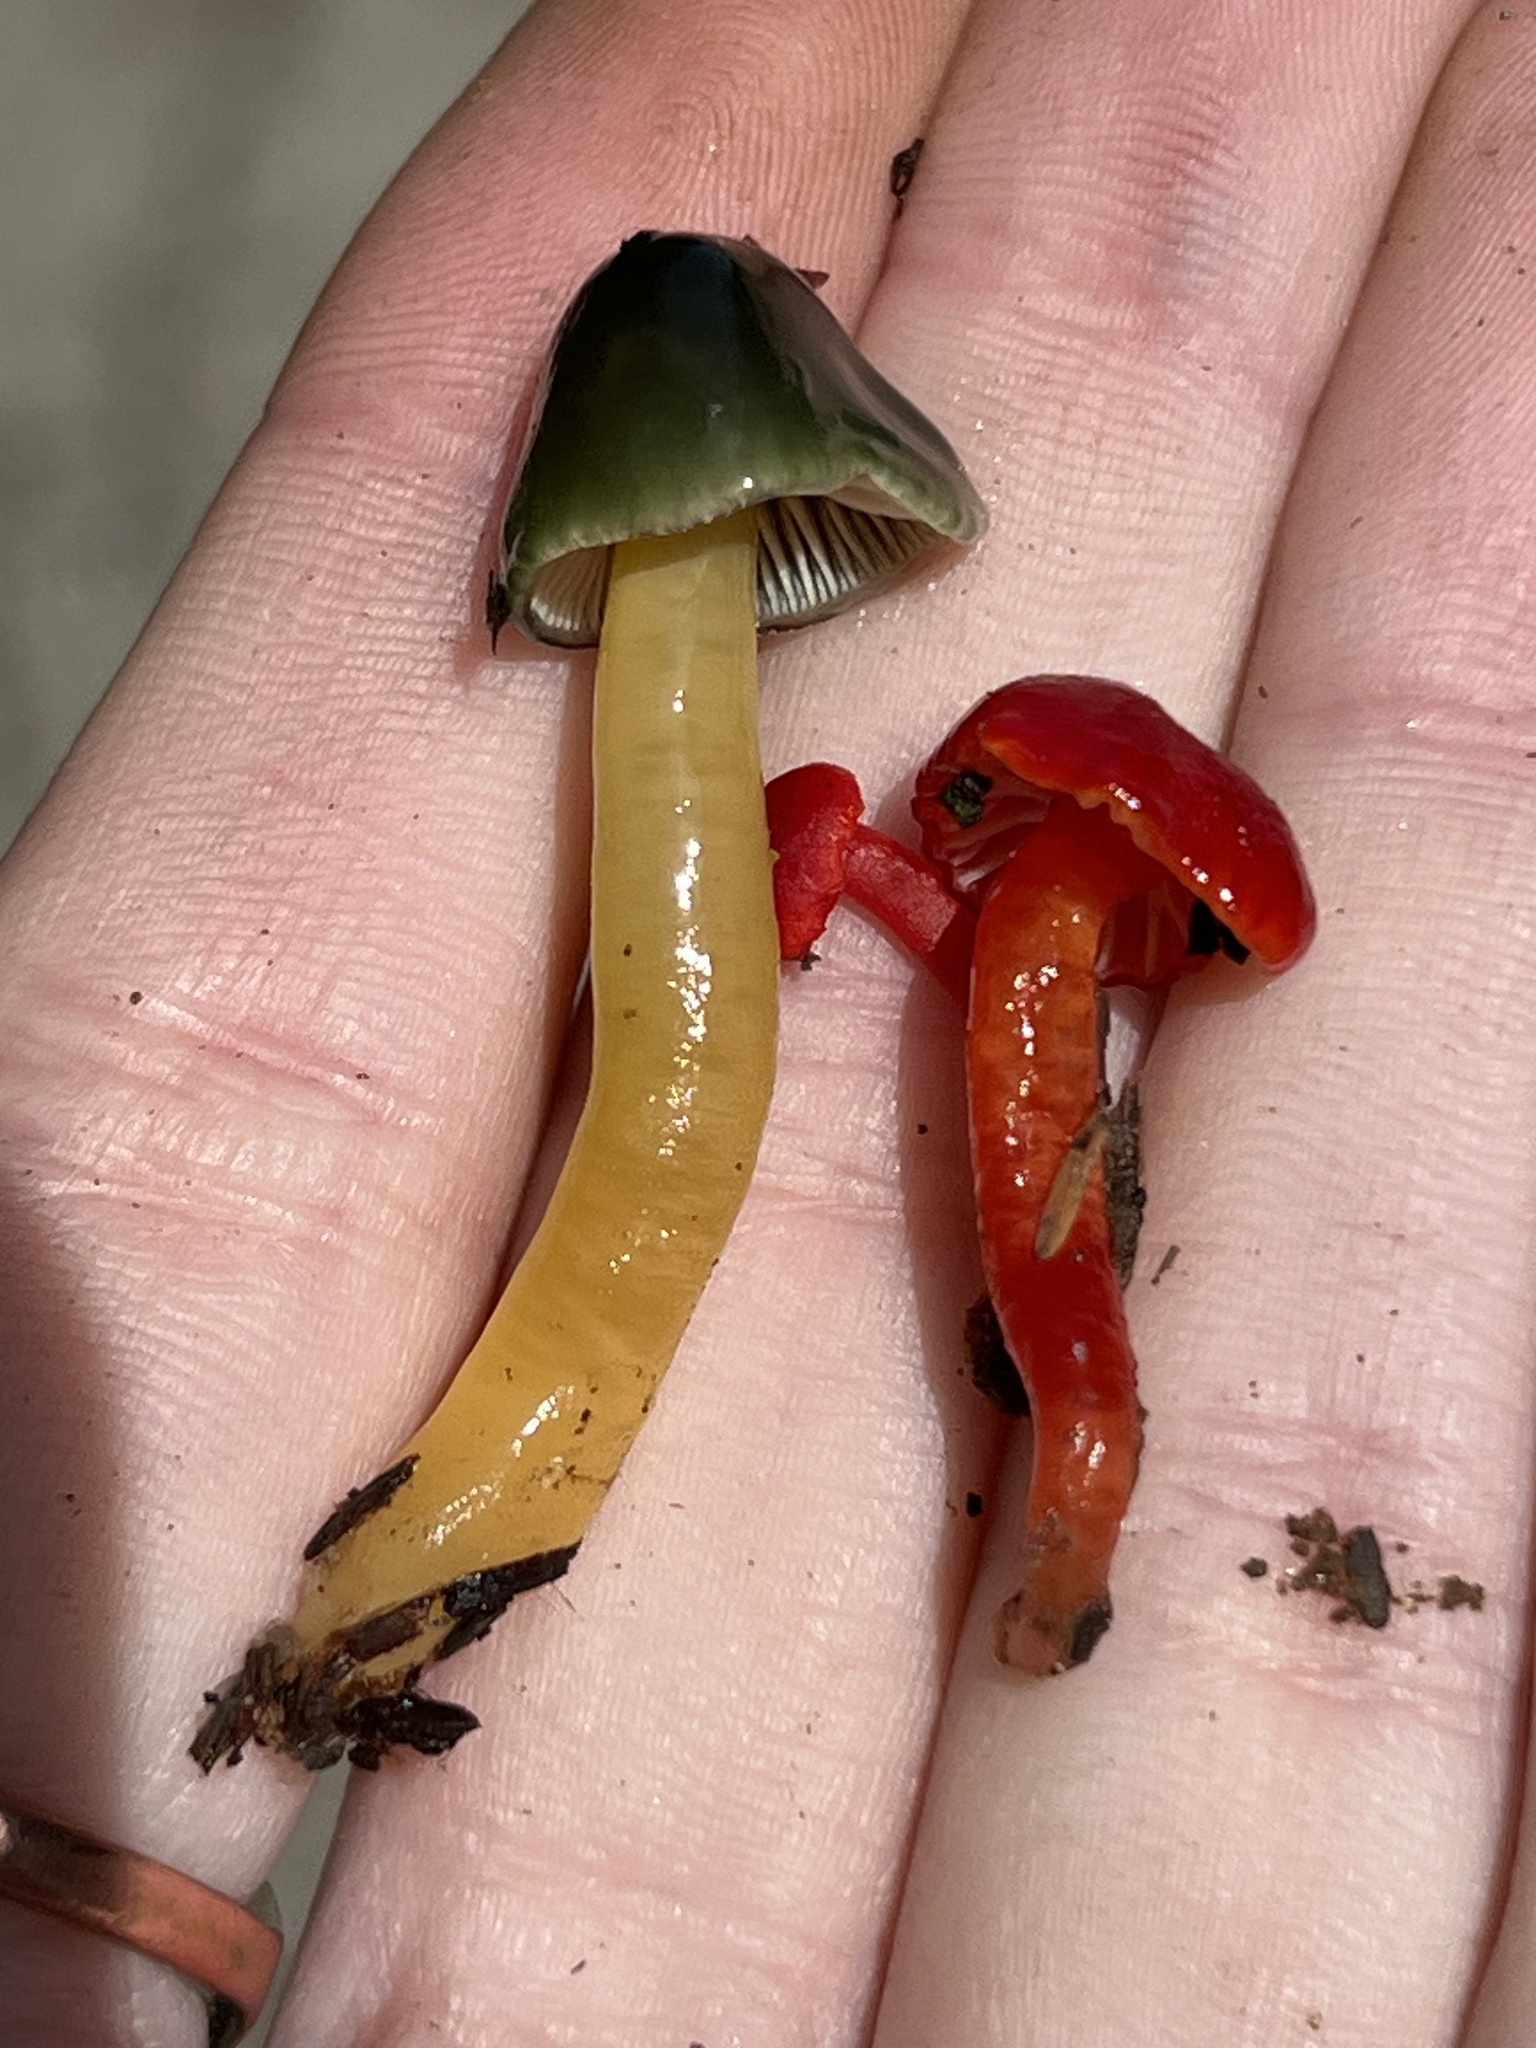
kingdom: Fungi
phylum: Basidiomycota
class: Agaricomycetes
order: Agaricales
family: Hygrophoraceae
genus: Gliophorus
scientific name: Gliophorus psittacinus
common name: Parrot wax-cap
